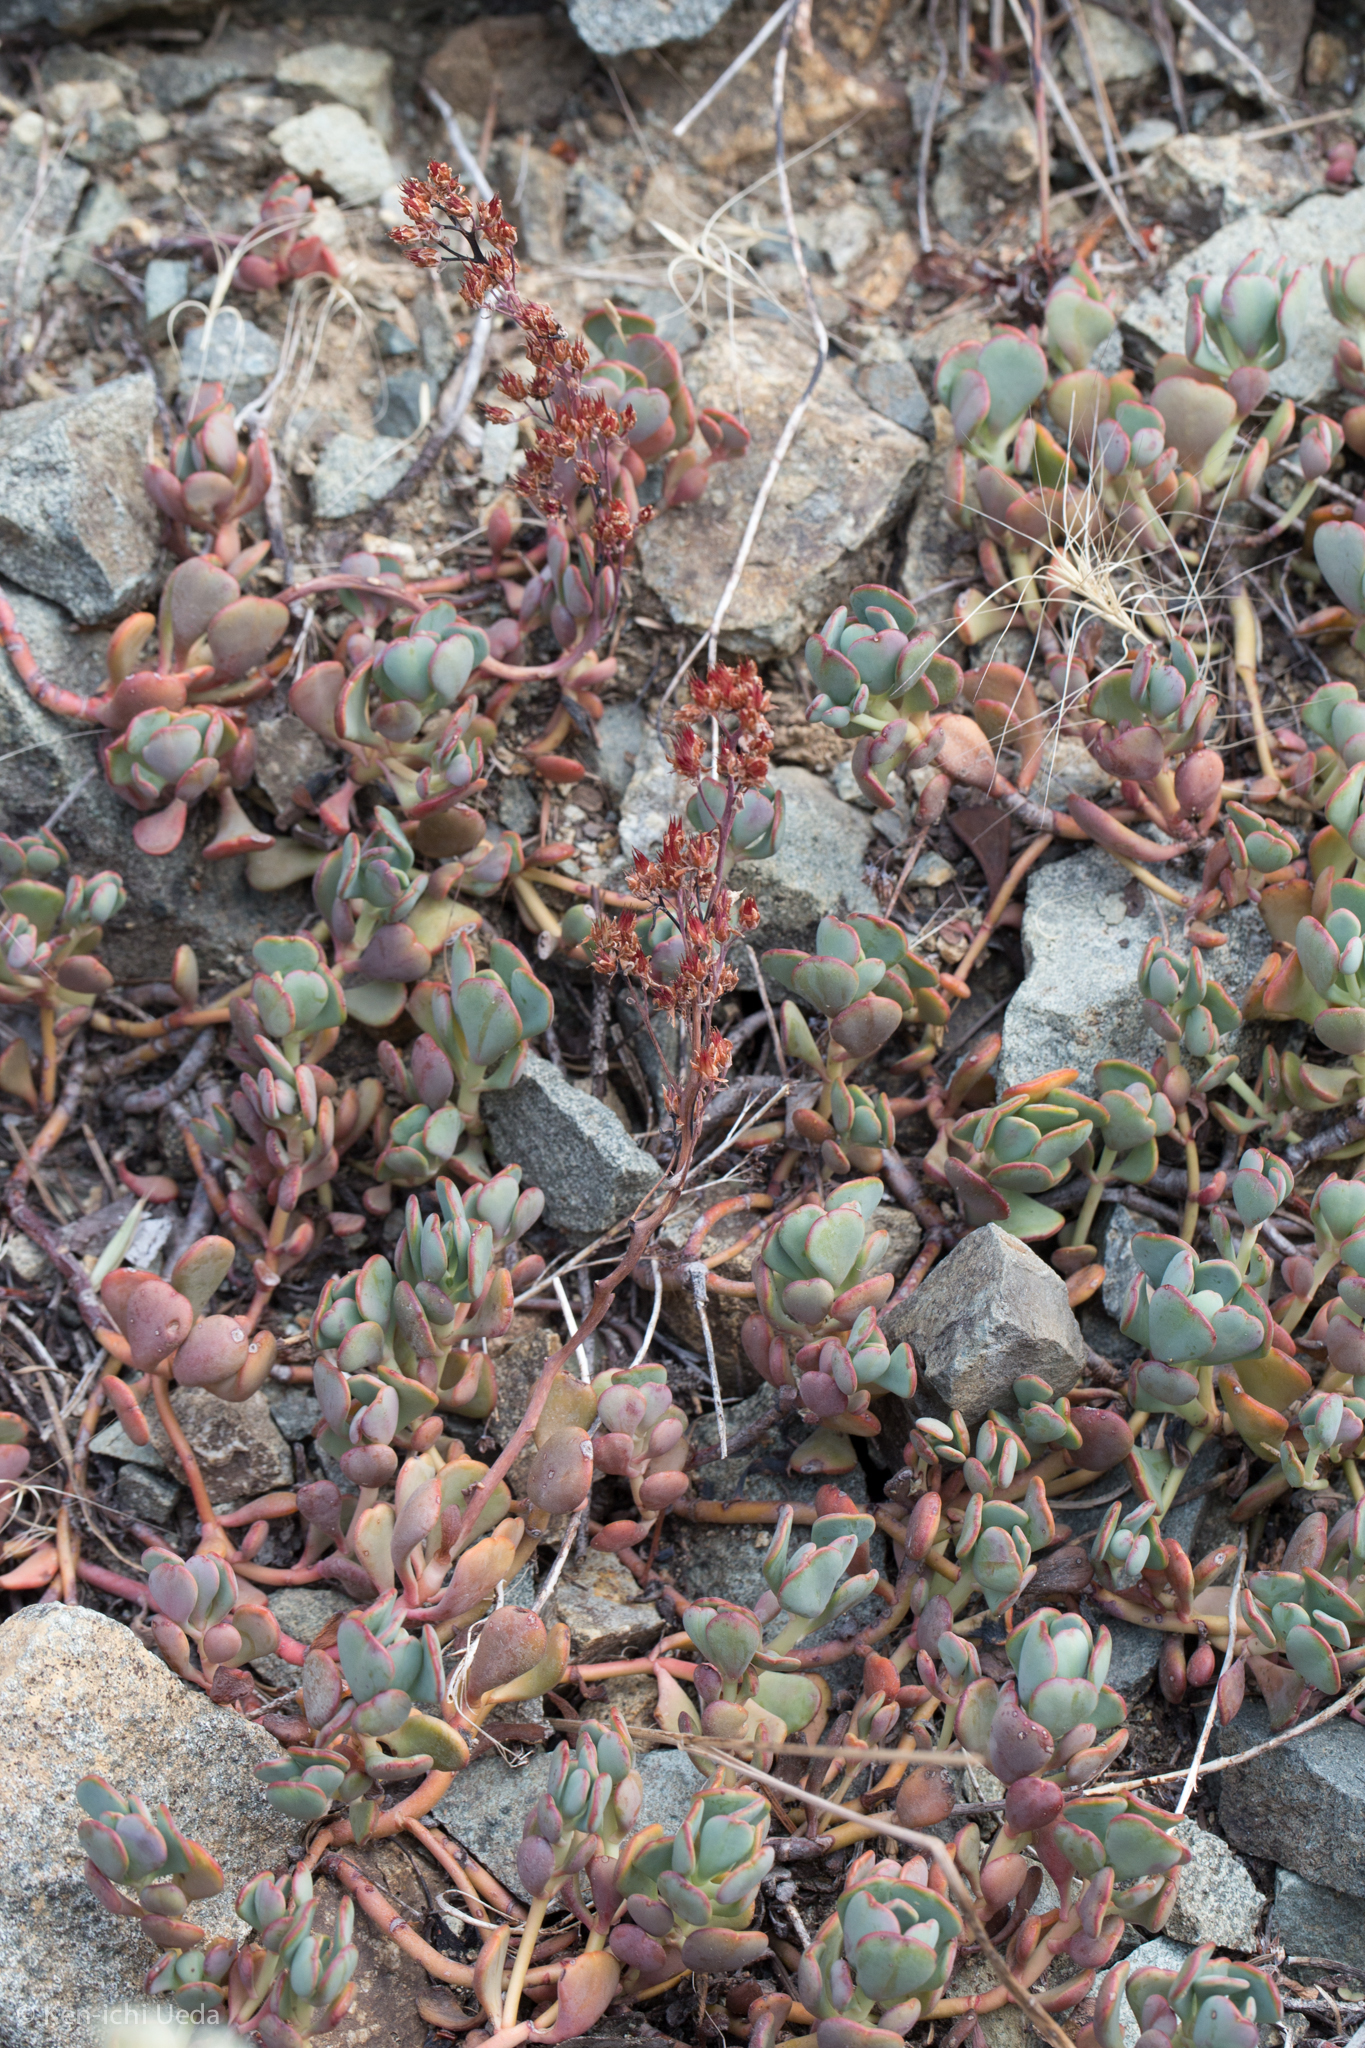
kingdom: Plantae
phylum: Tracheophyta
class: Magnoliopsida
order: Saxifragales
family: Crassulaceae
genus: Sedum
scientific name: Sedum obtusatum
